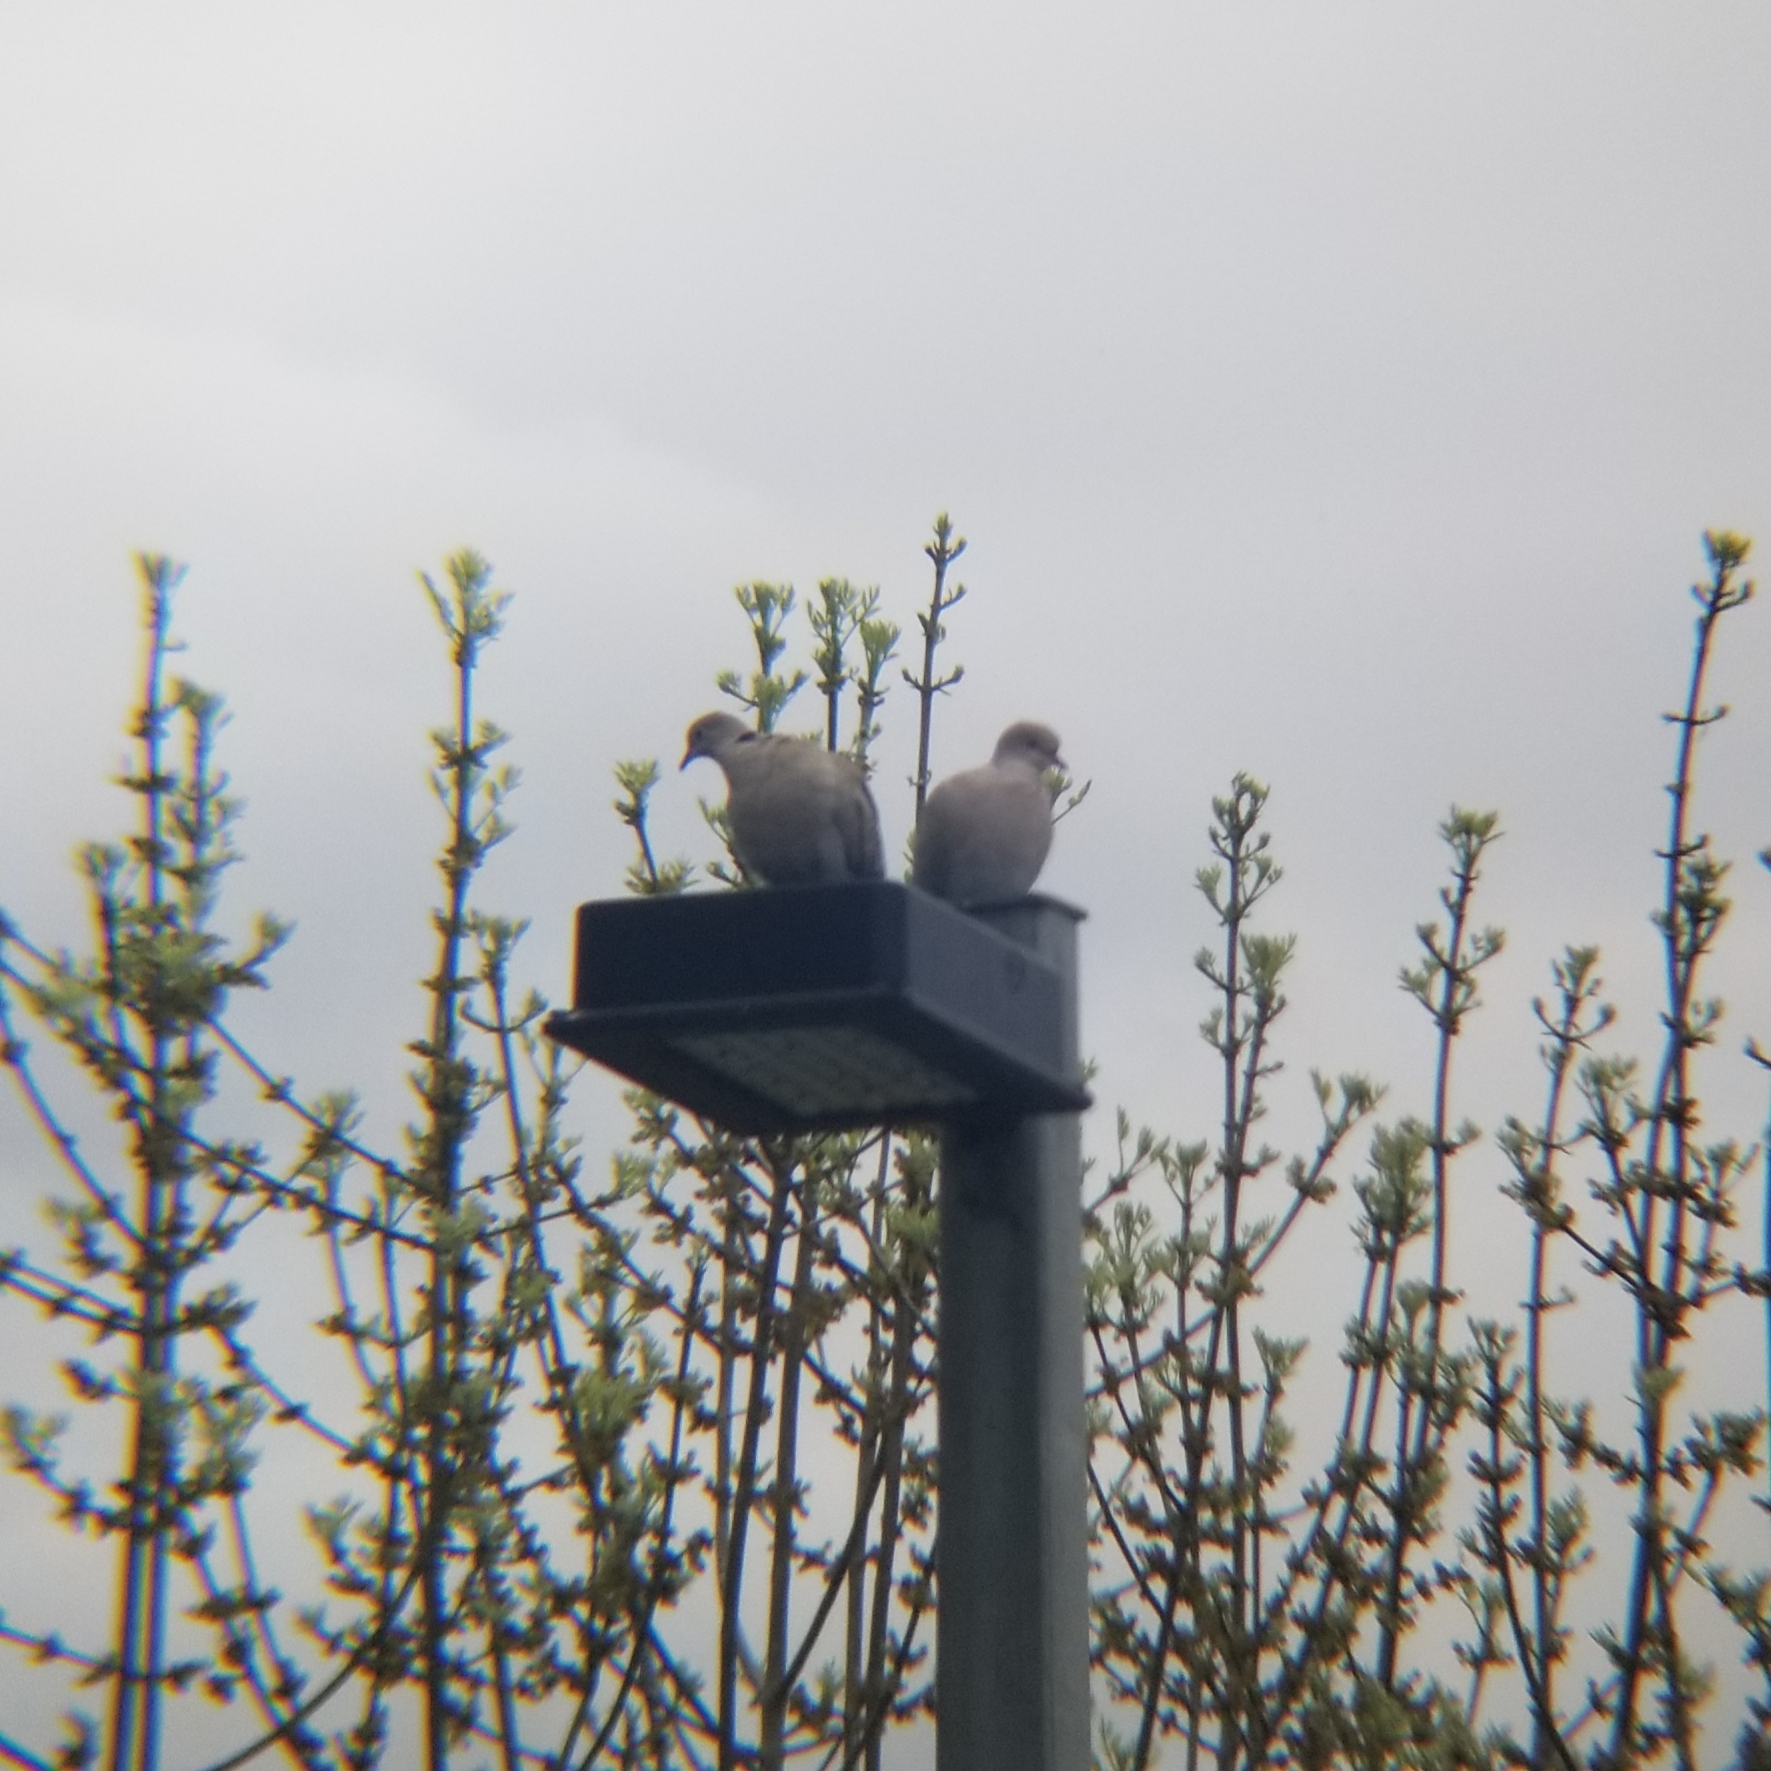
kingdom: Animalia
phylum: Chordata
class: Aves
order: Columbiformes
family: Columbidae
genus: Streptopelia
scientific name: Streptopelia decaocto
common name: Eurasian collared dove
